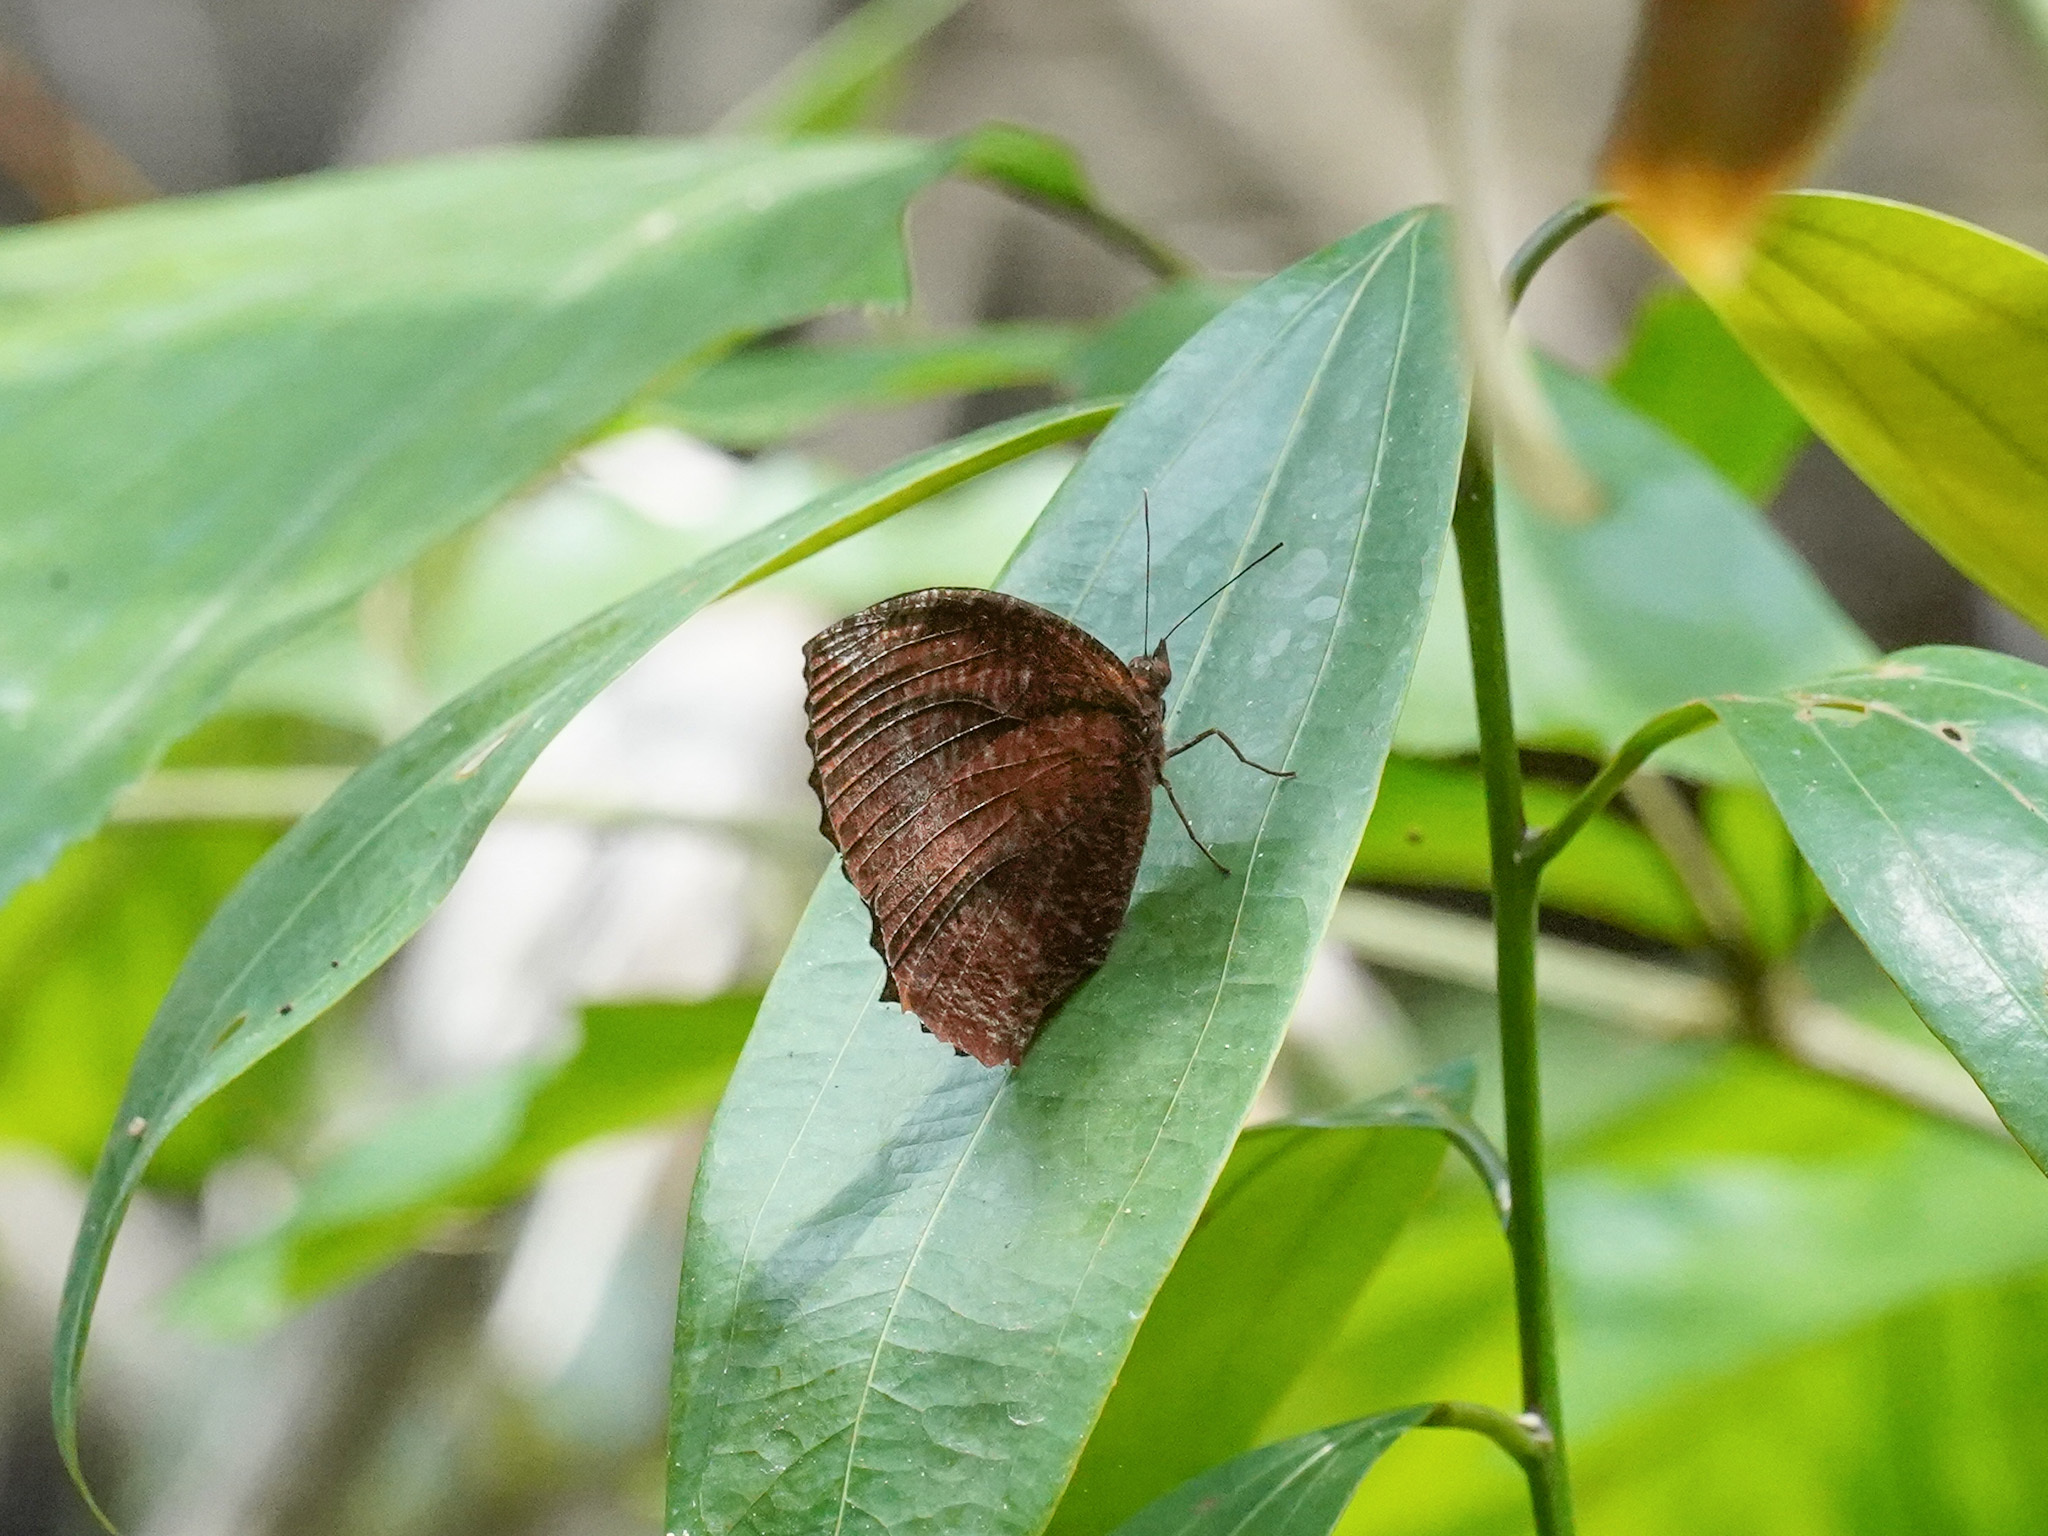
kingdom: Animalia
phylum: Arthropoda
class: Insecta
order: Lepidoptera
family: Nymphalidae
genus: Elymnias
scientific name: Elymnias hypermnestra
